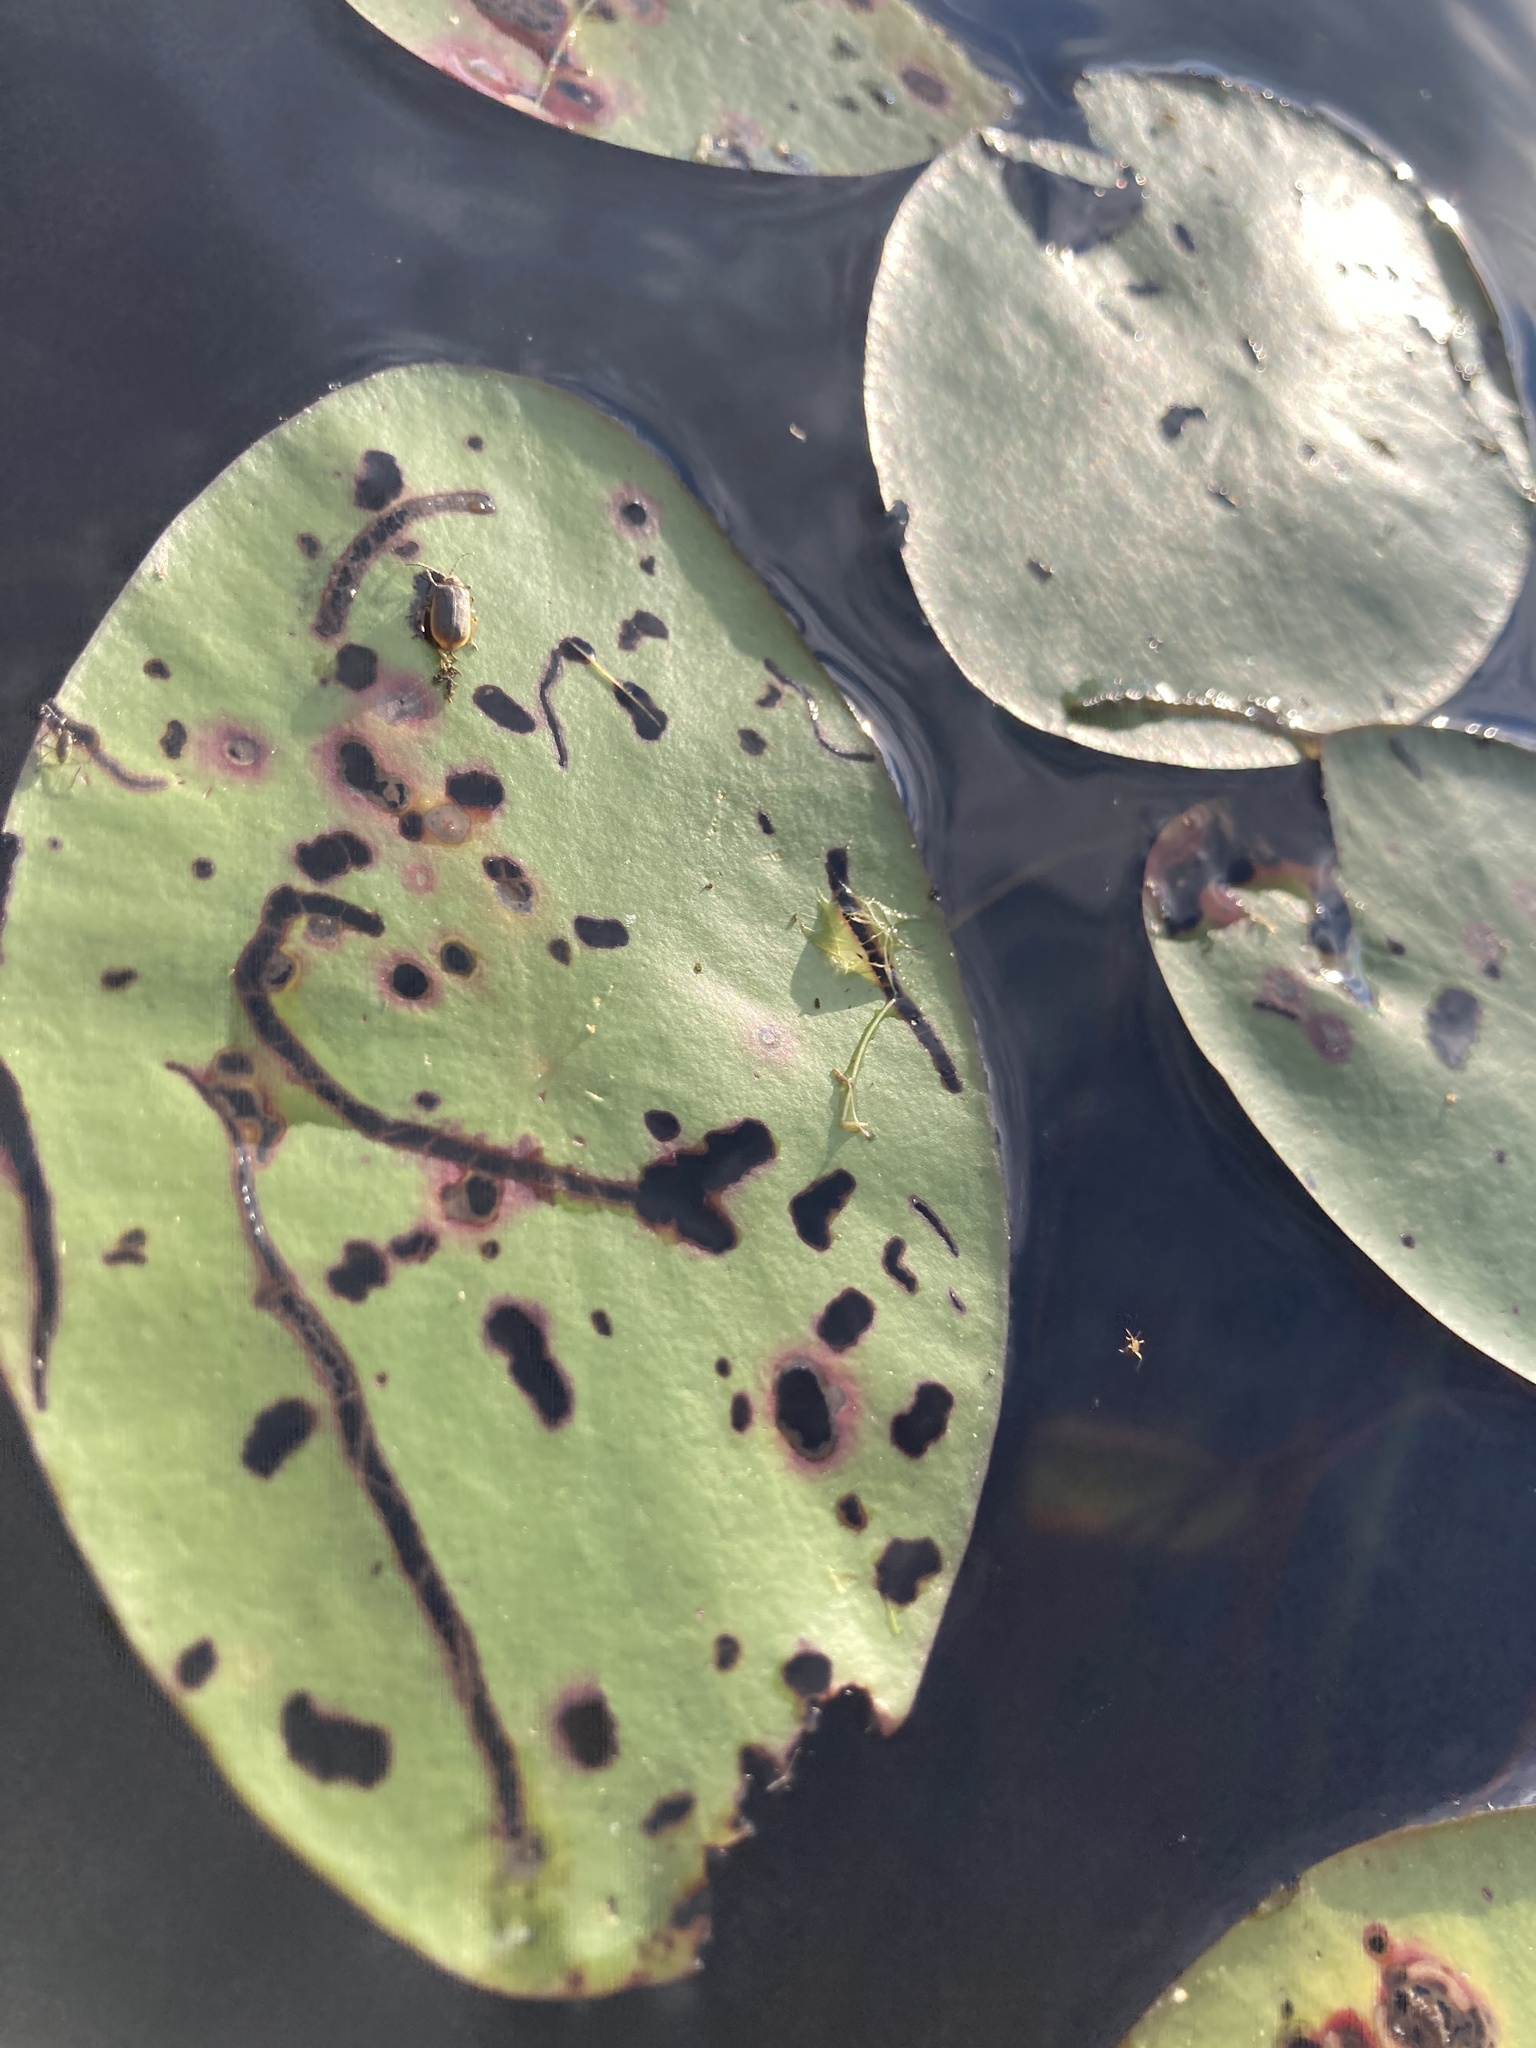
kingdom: Animalia
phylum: Arthropoda
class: Insecta
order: Diptera
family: Chironomidae
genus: Polypedilum
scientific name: Polypedilum braseniae
